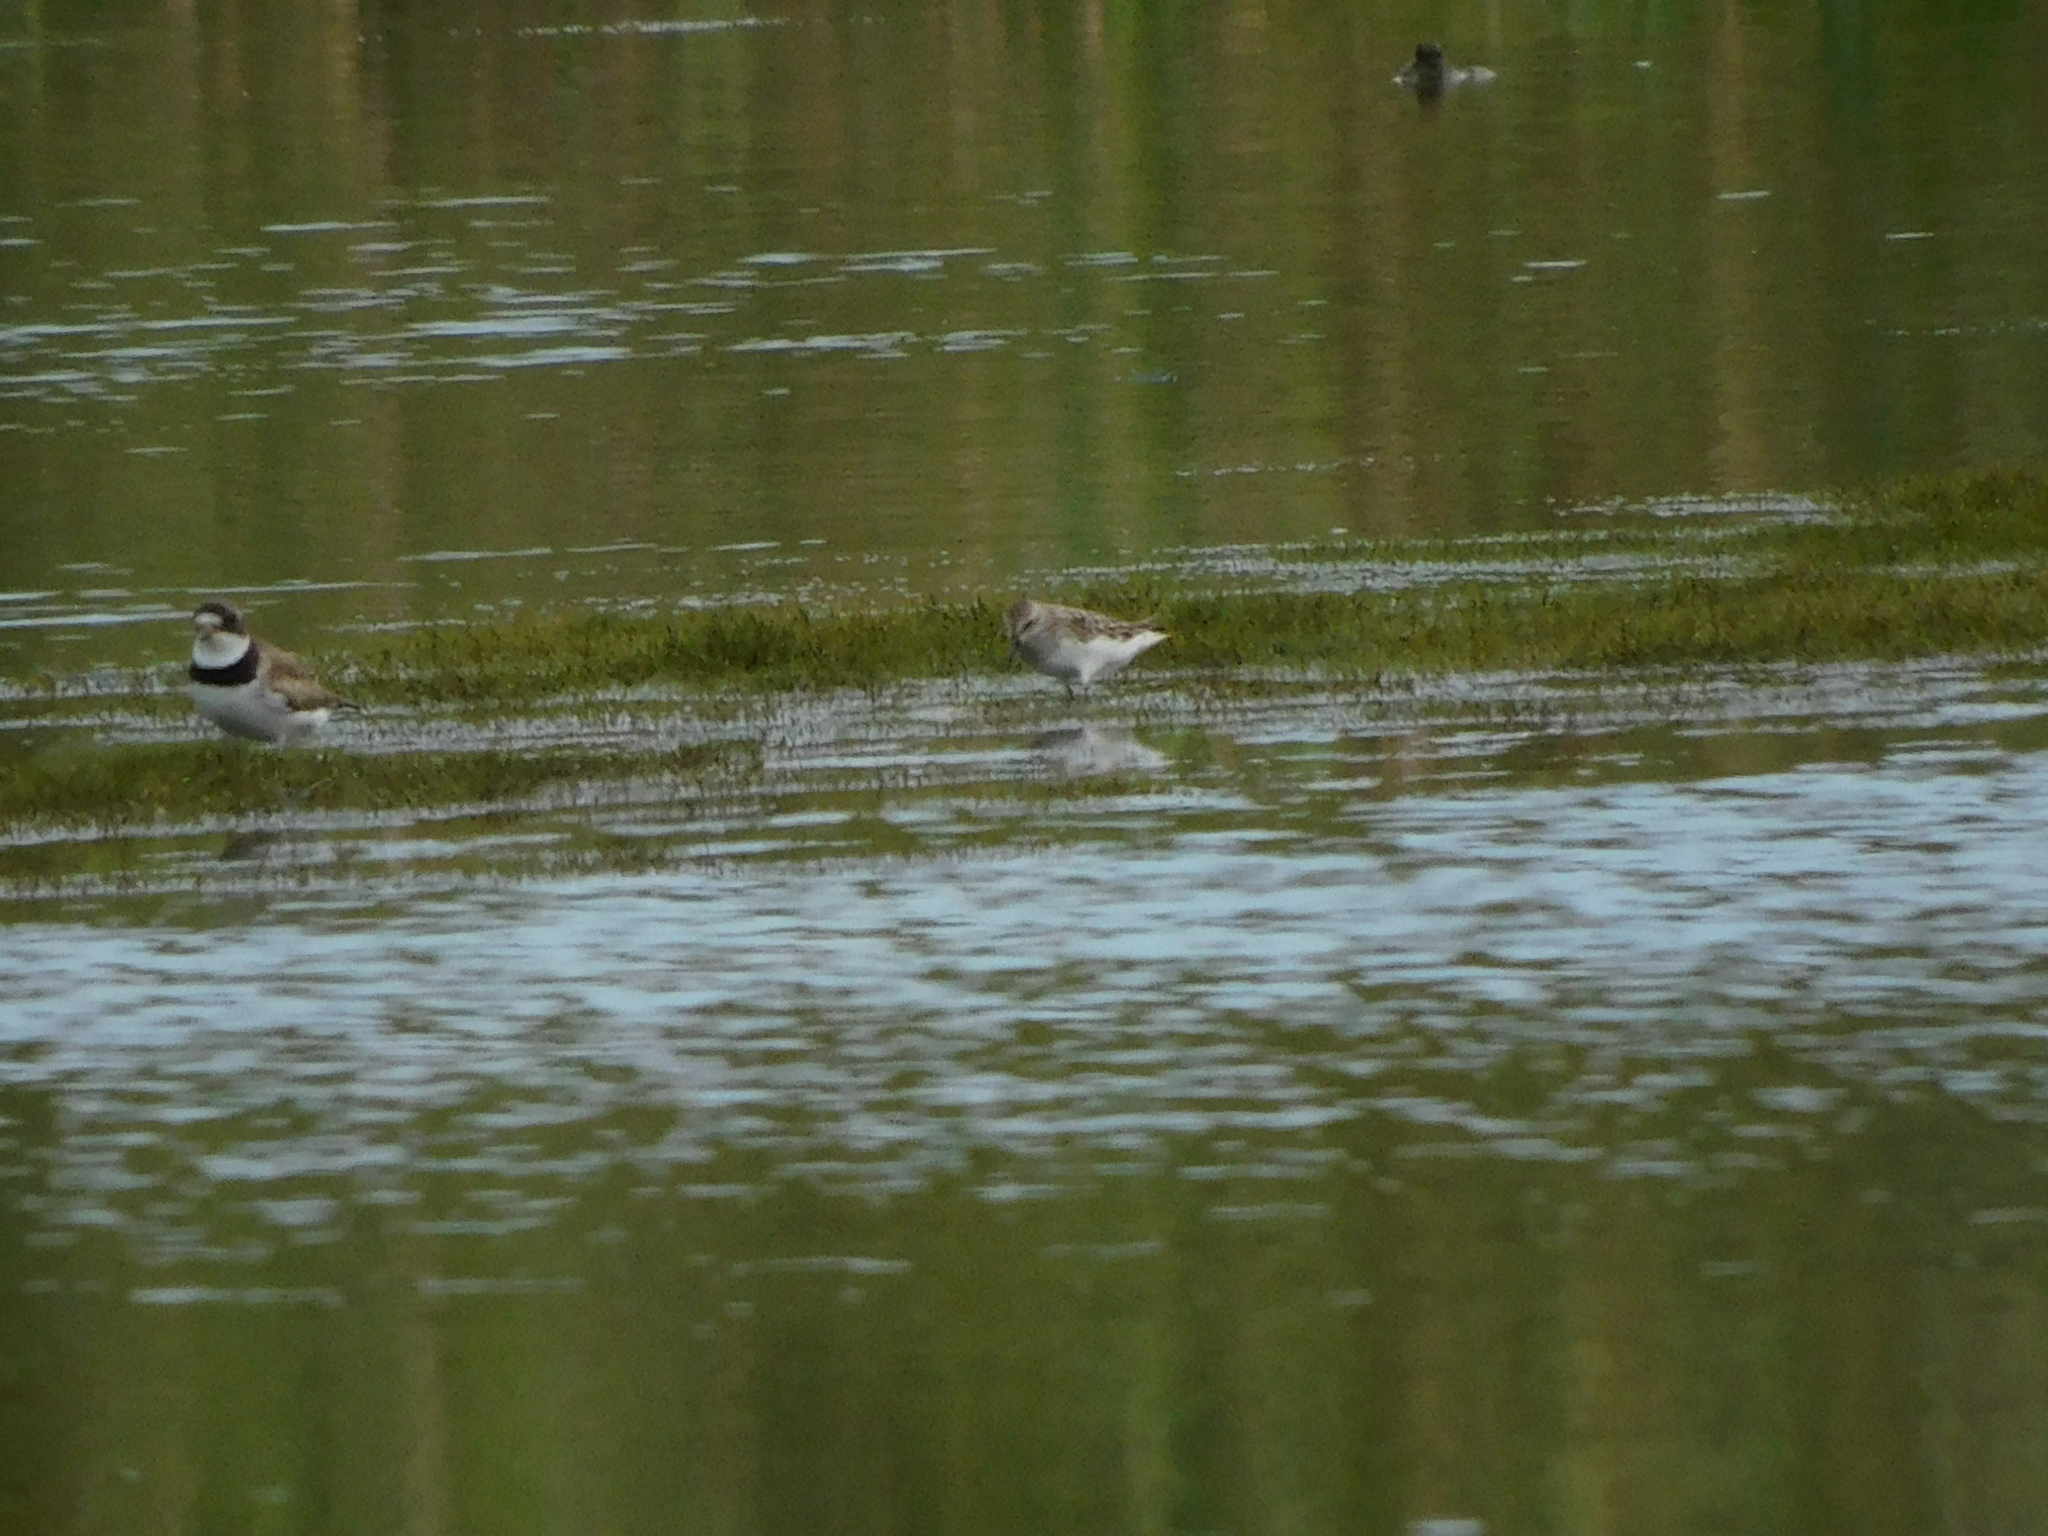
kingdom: Animalia
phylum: Chordata
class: Aves
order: Charadriiformes
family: Scolopacidae
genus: Calidris
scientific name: Calidris minutilla
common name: Least sandpiper
